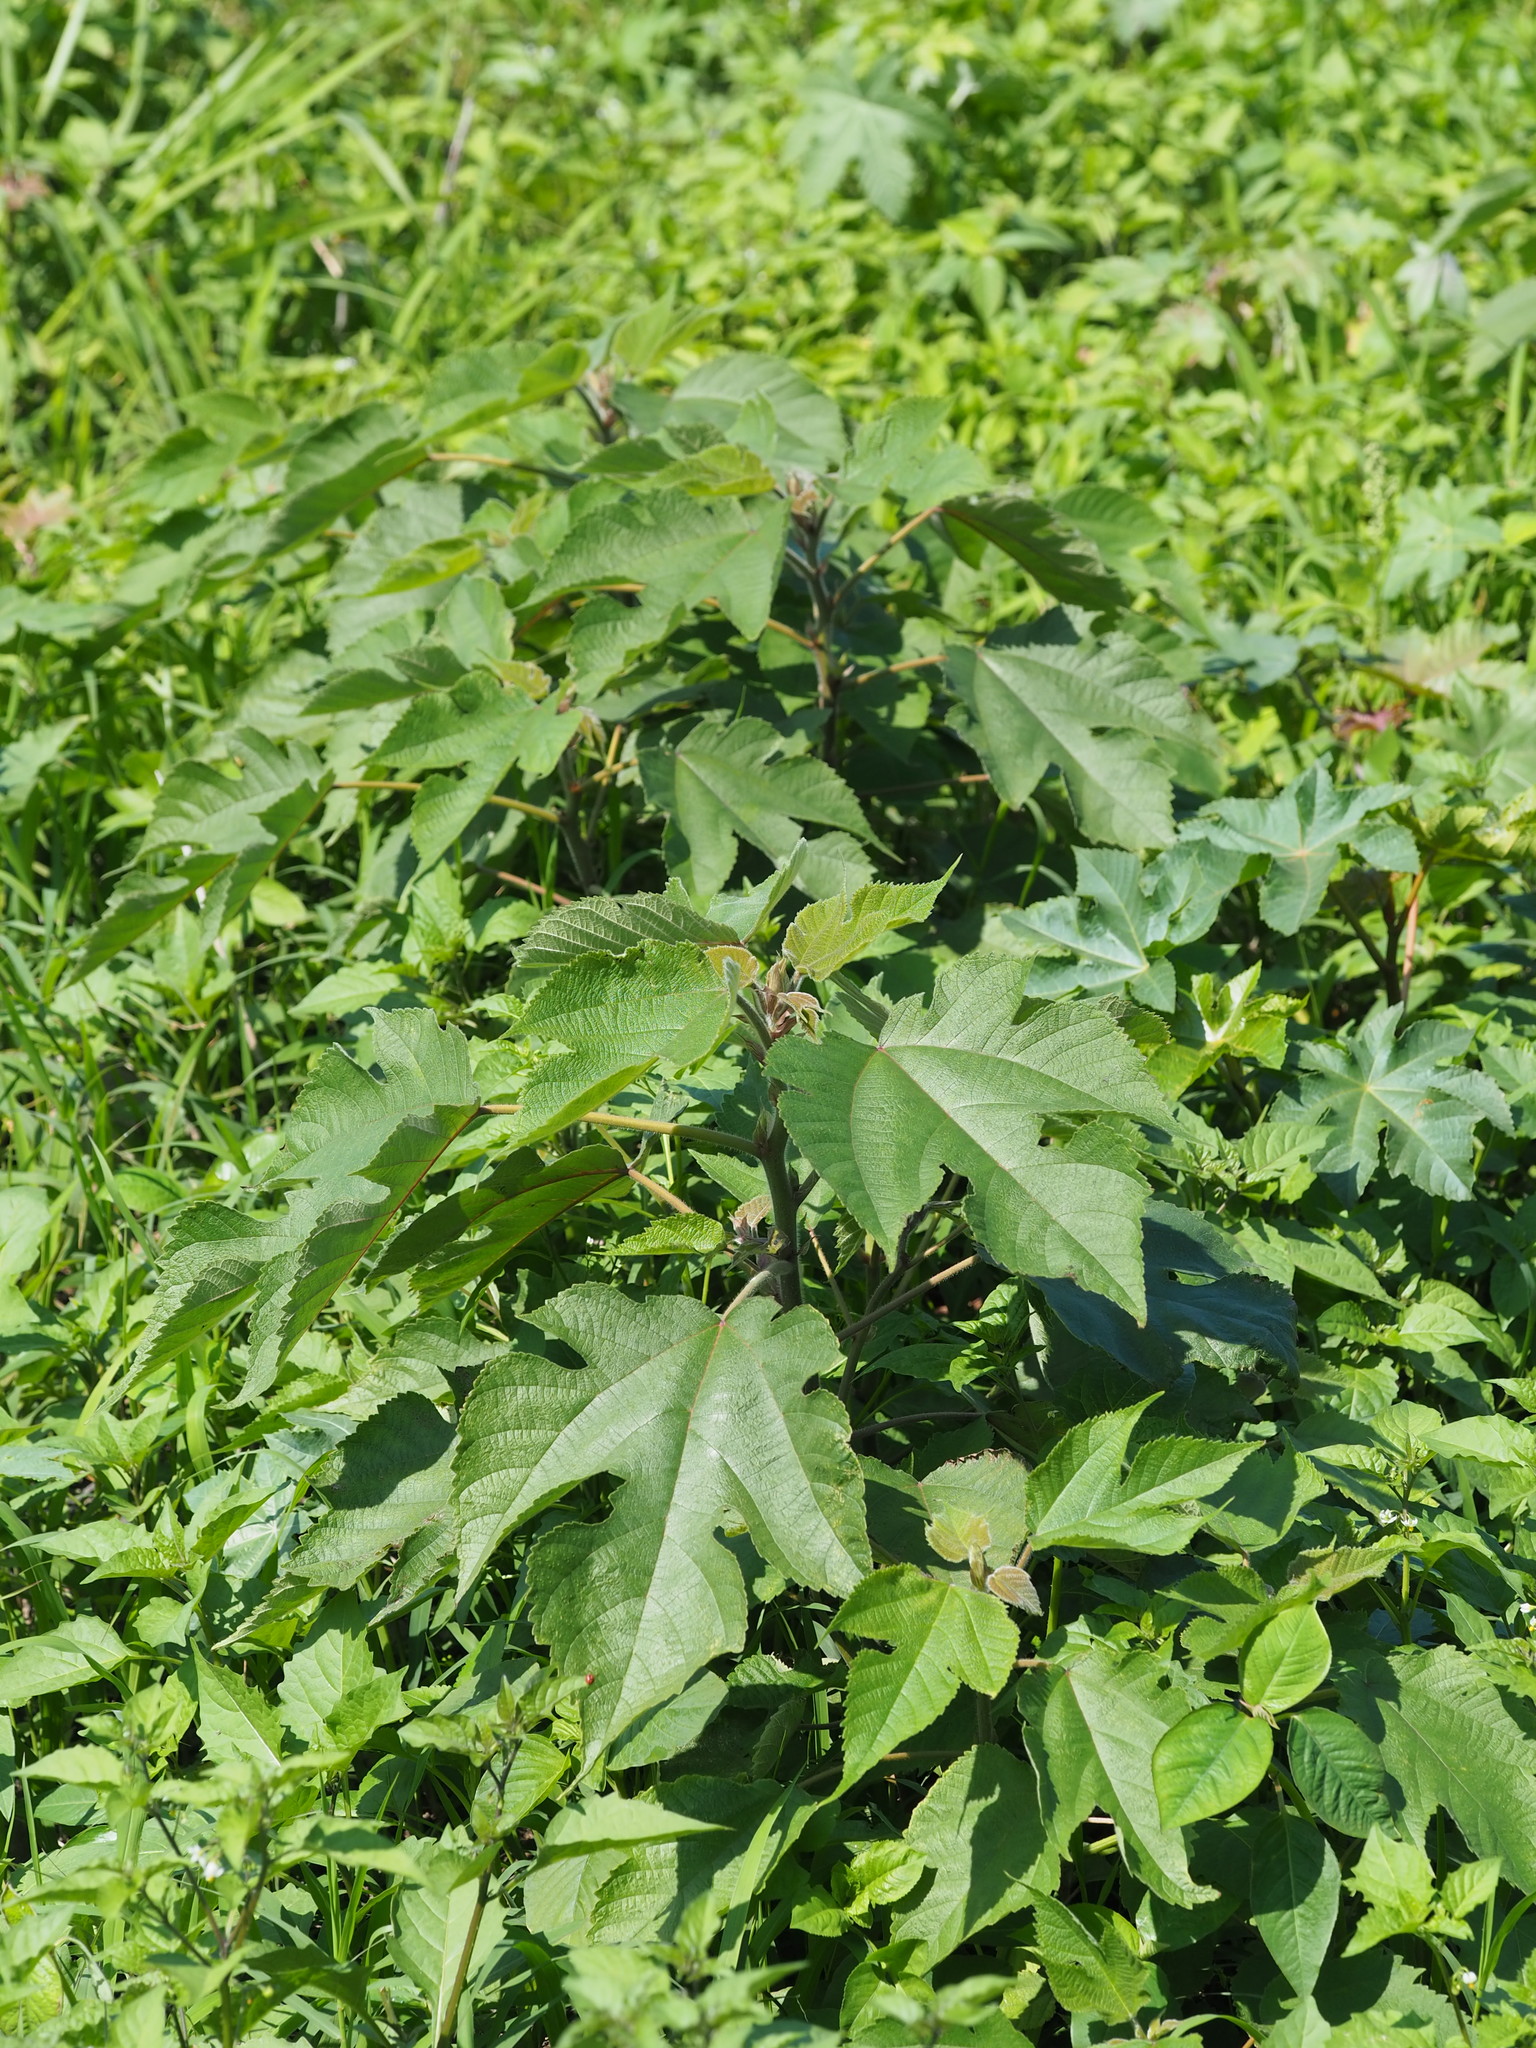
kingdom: Plantae
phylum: Tracheophyta
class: Magnoliopsida
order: Rosales
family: Moraceae
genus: Broussonetia
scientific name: Broussonetia papyrifera
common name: Paper mulberry
